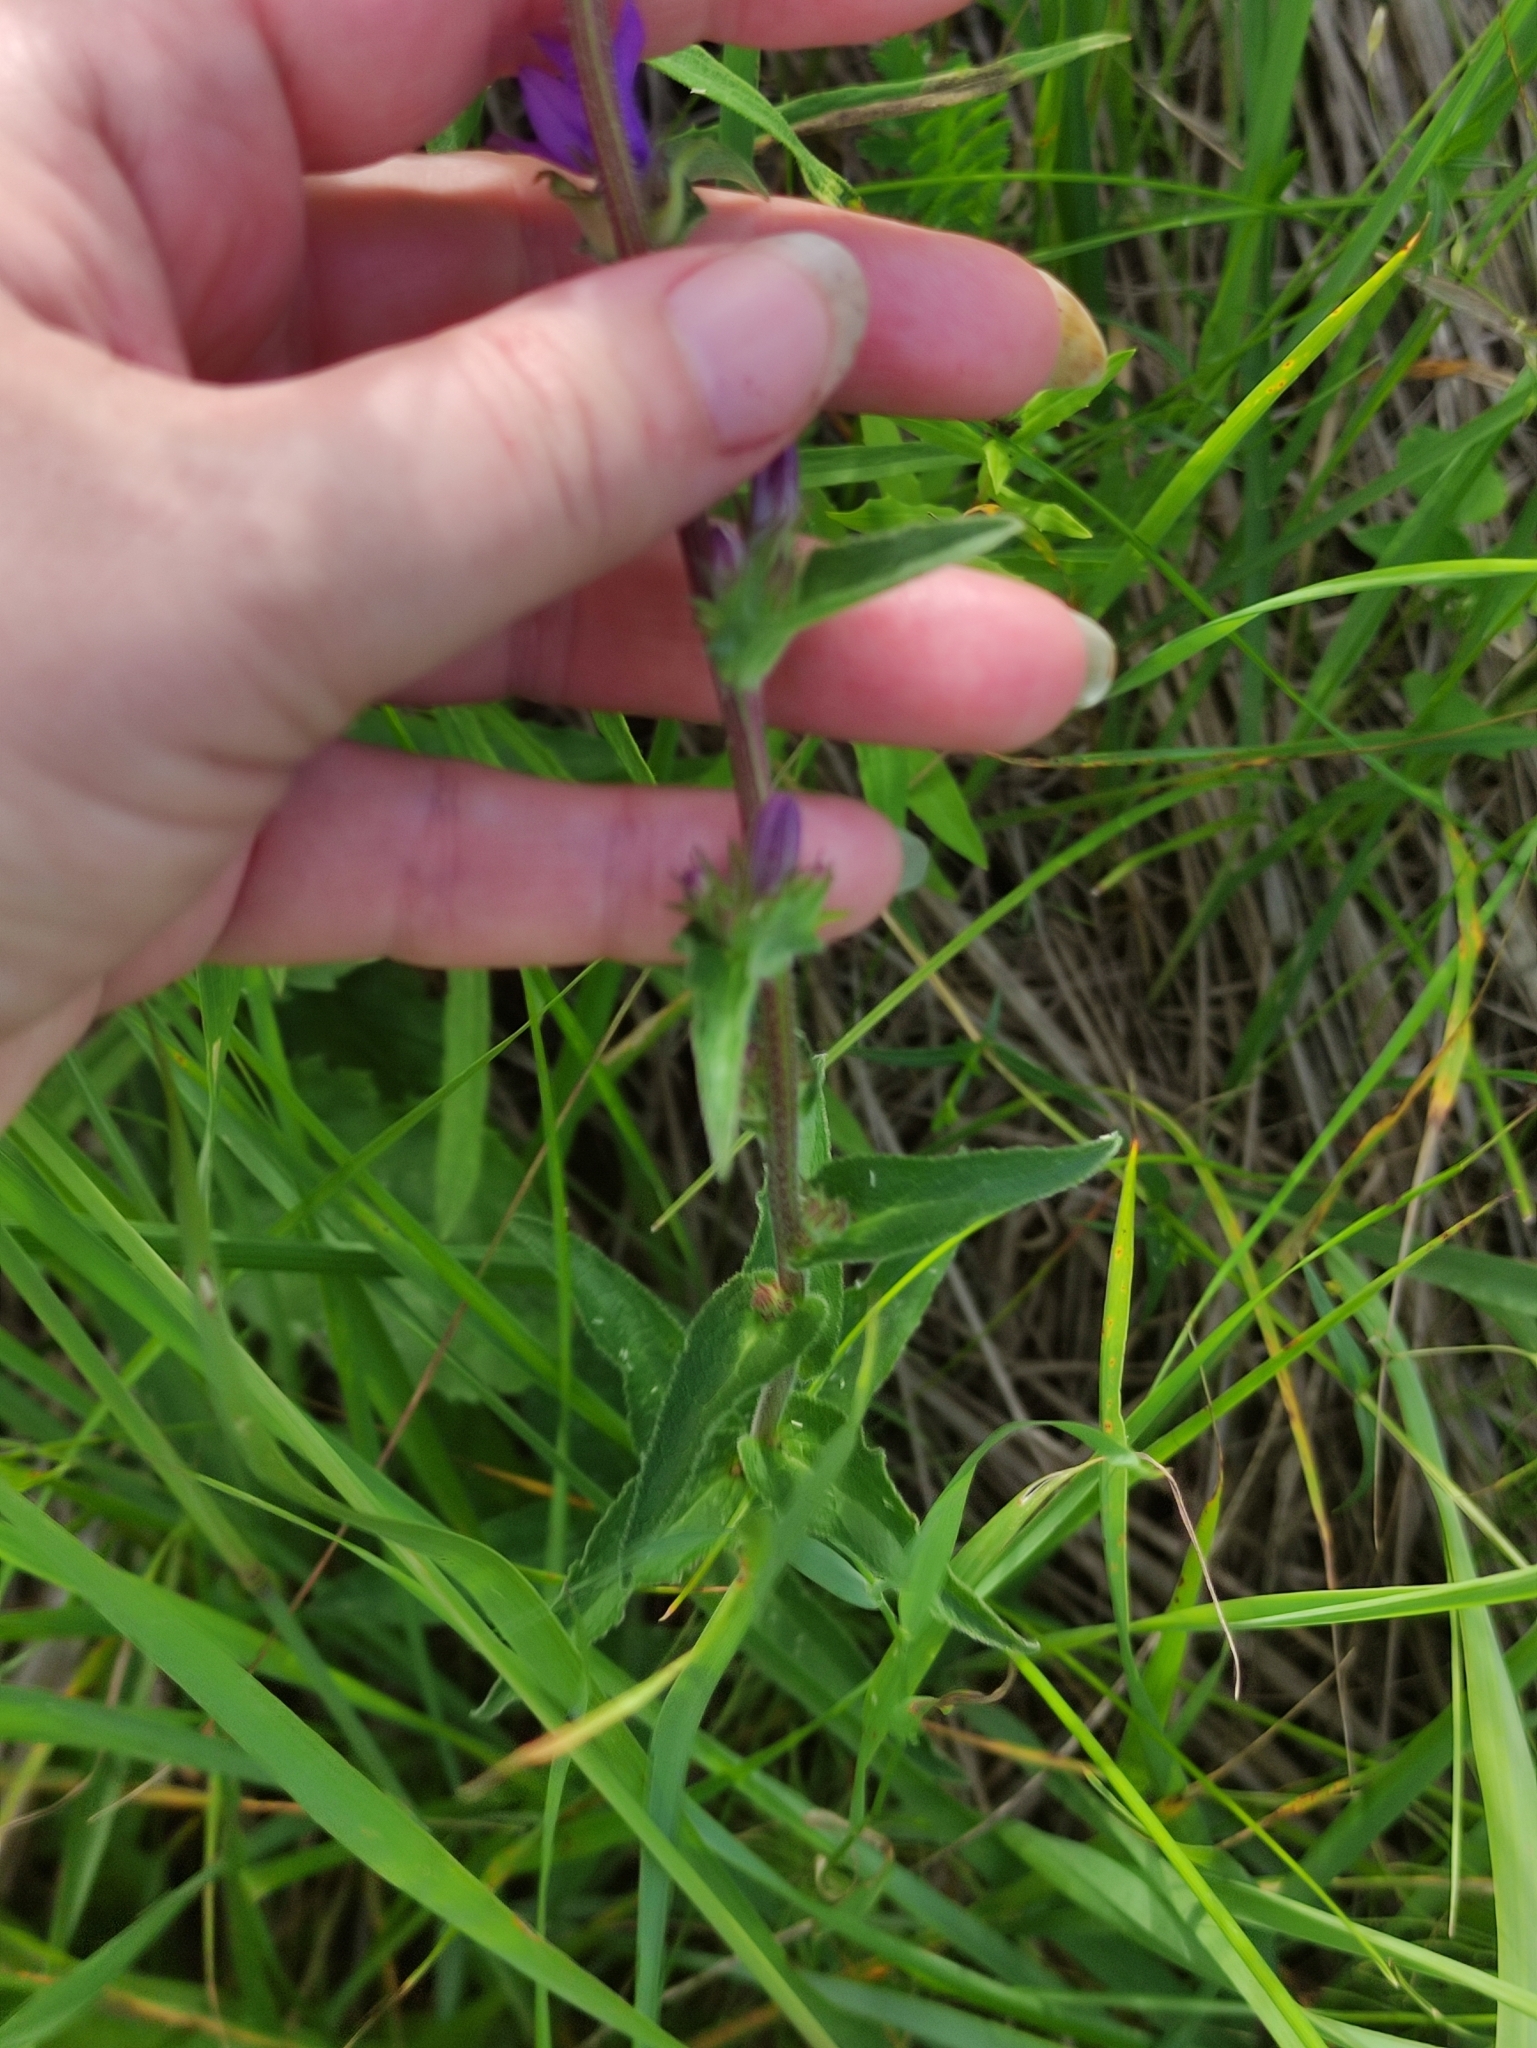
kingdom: Plantae
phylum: Tracheophyta
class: Magnoliopsida
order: Asterales
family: Campanulaceae
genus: Campanula
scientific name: Campanula glomerata
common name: Clustered bellflower
